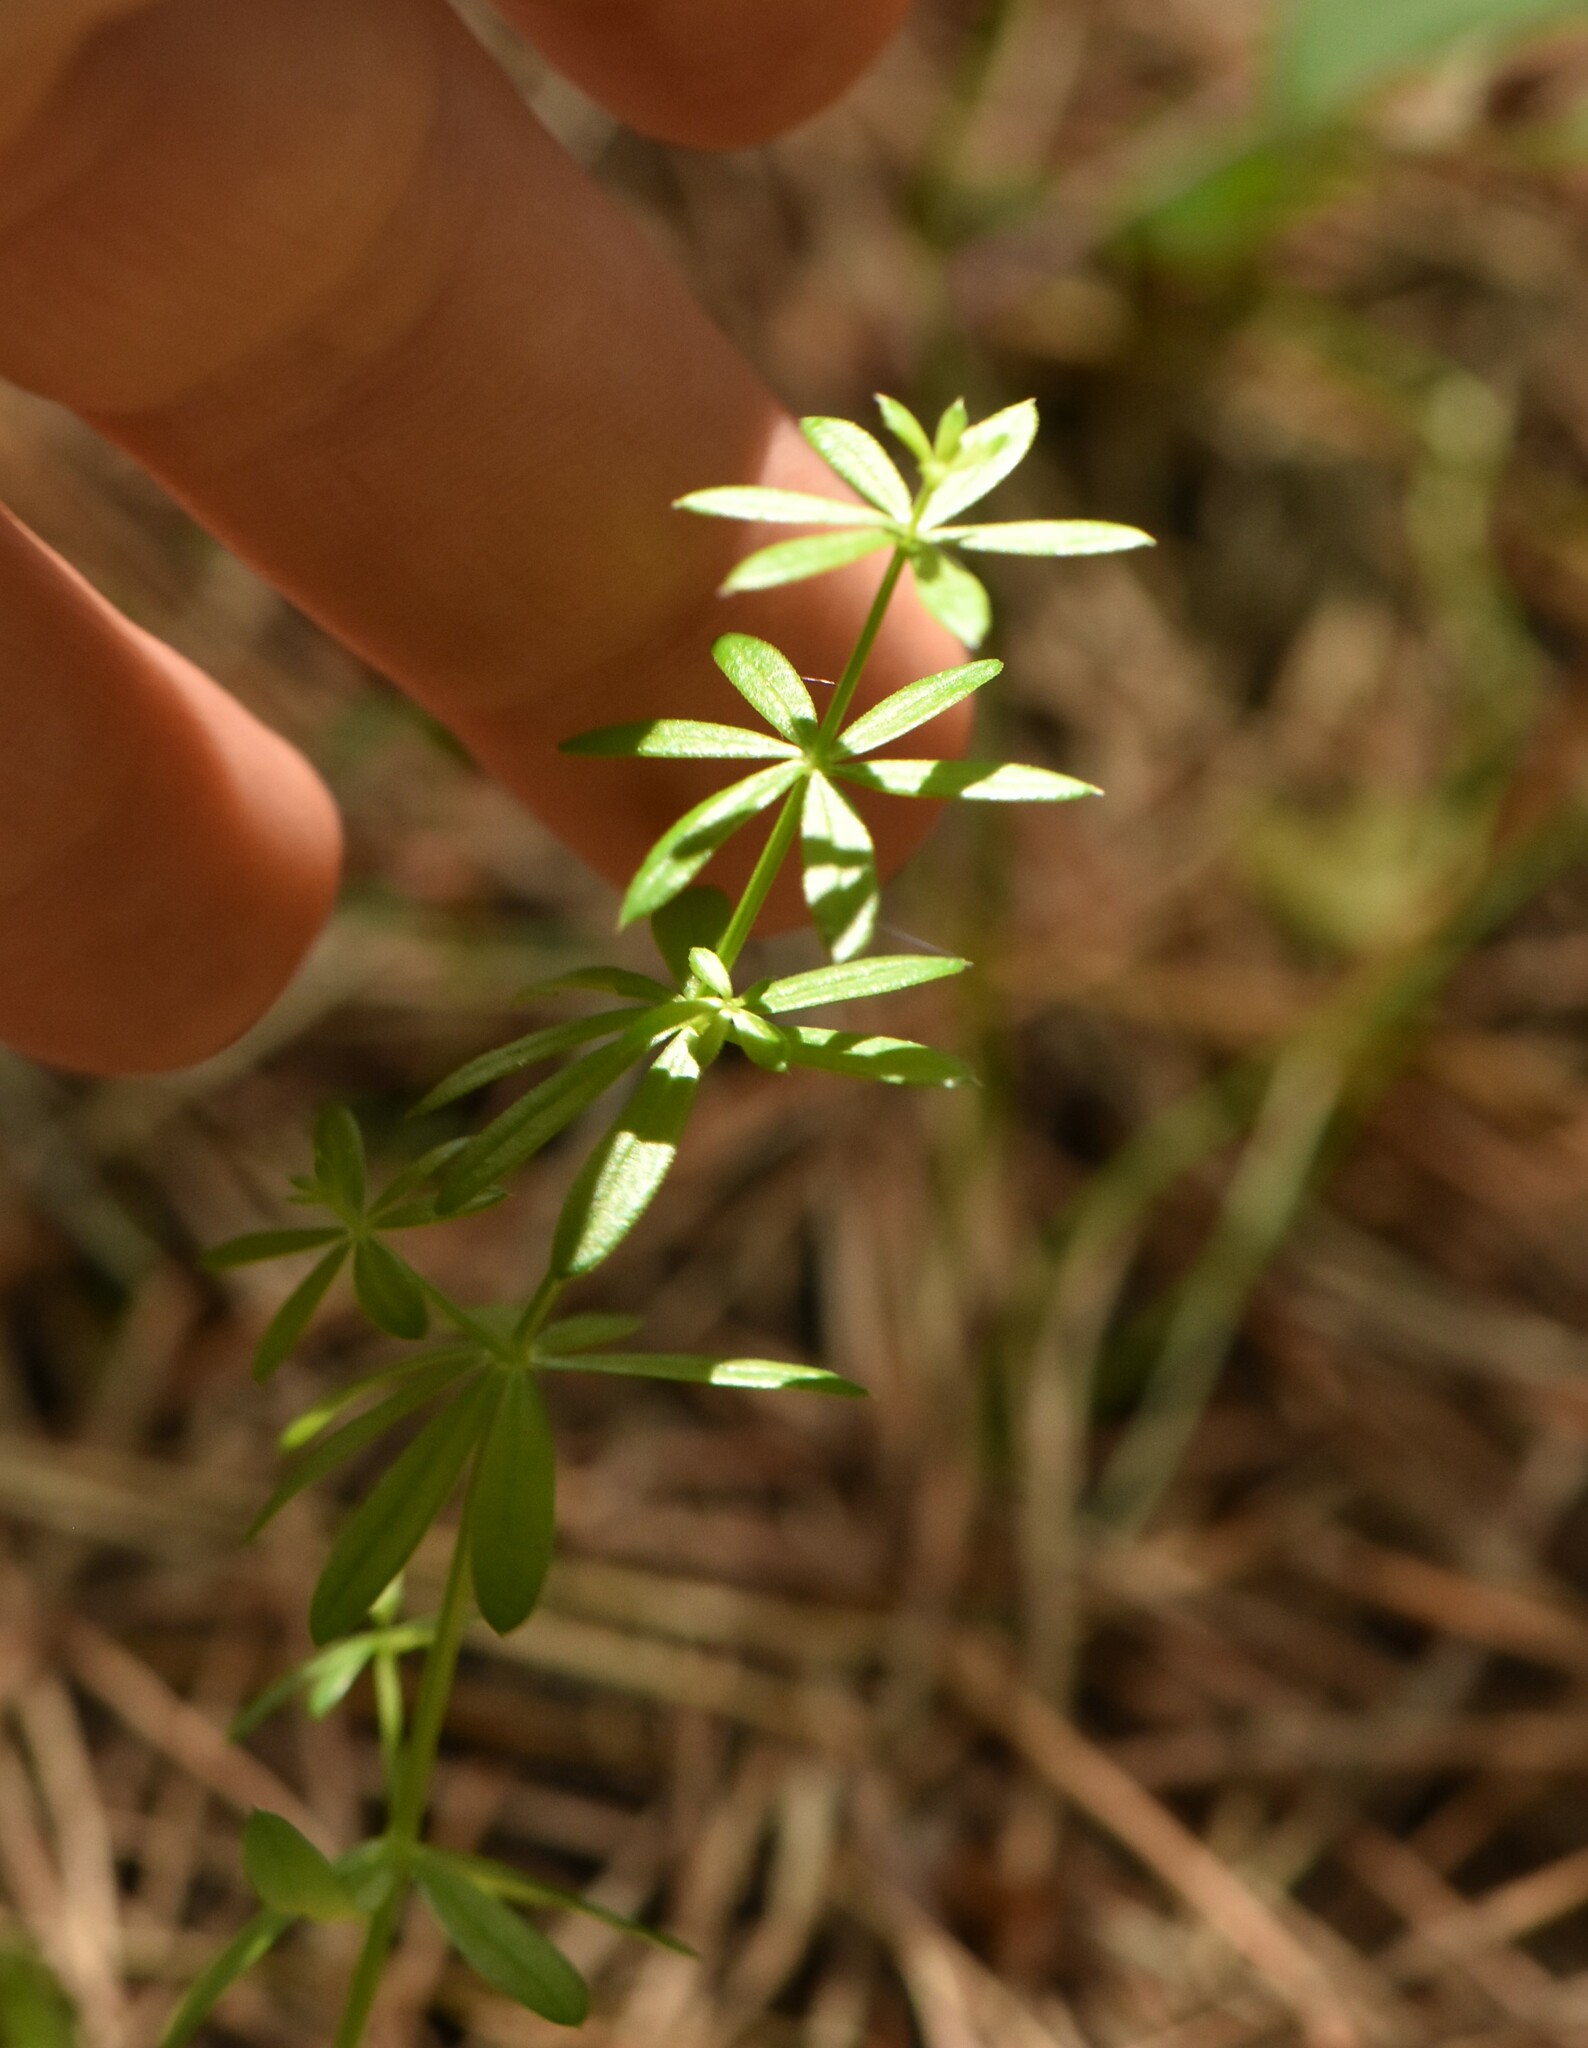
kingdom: Plantae
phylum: Tracheophyta
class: Magnoliopsida
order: Gentianales
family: Rubiaceae
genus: Galium
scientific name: Galium mollugo
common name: Hedge bedstraw
